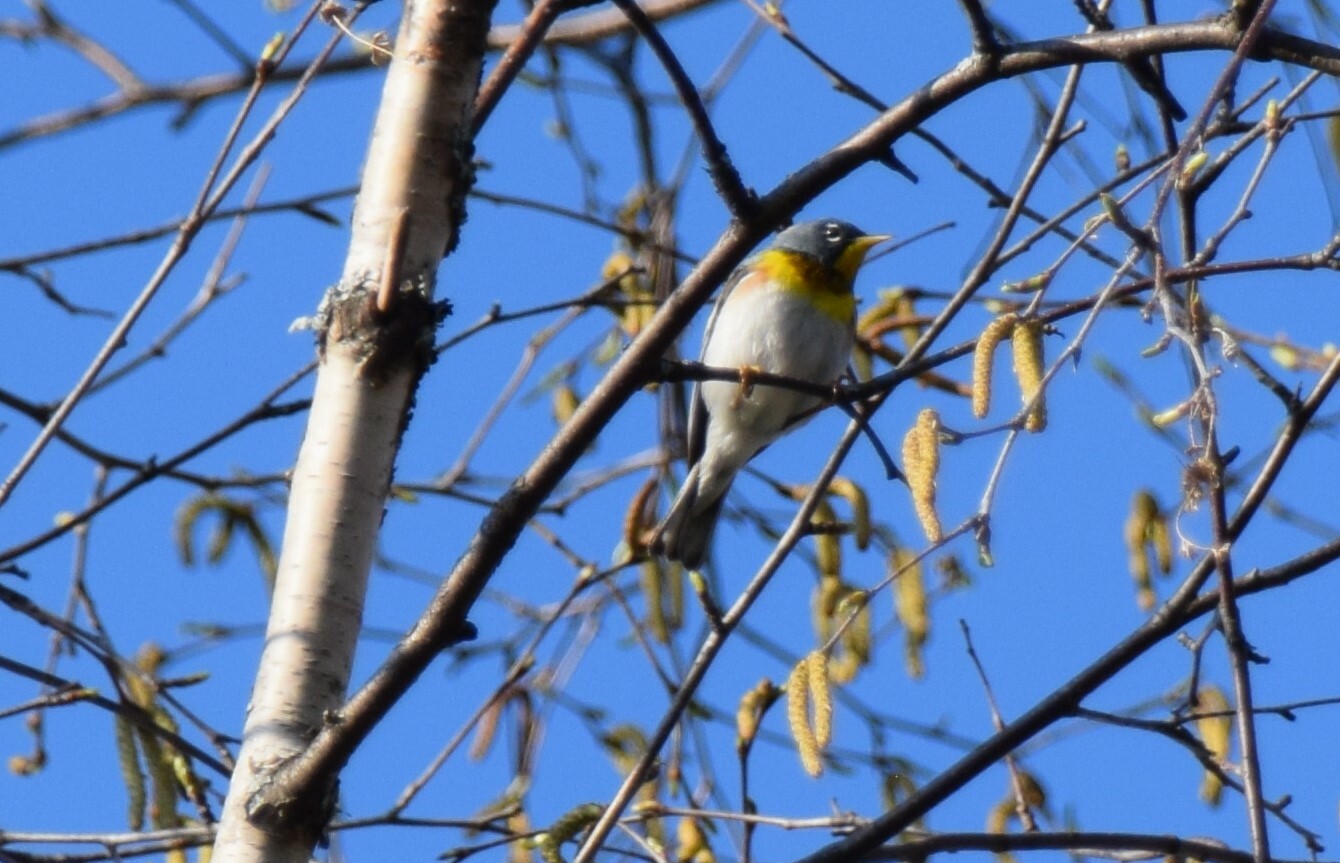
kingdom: Animalia
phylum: Chordata
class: Aves
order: Passeriformes
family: Parulidae
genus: Setophaga
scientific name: Setophaga americana
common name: Northern parula
